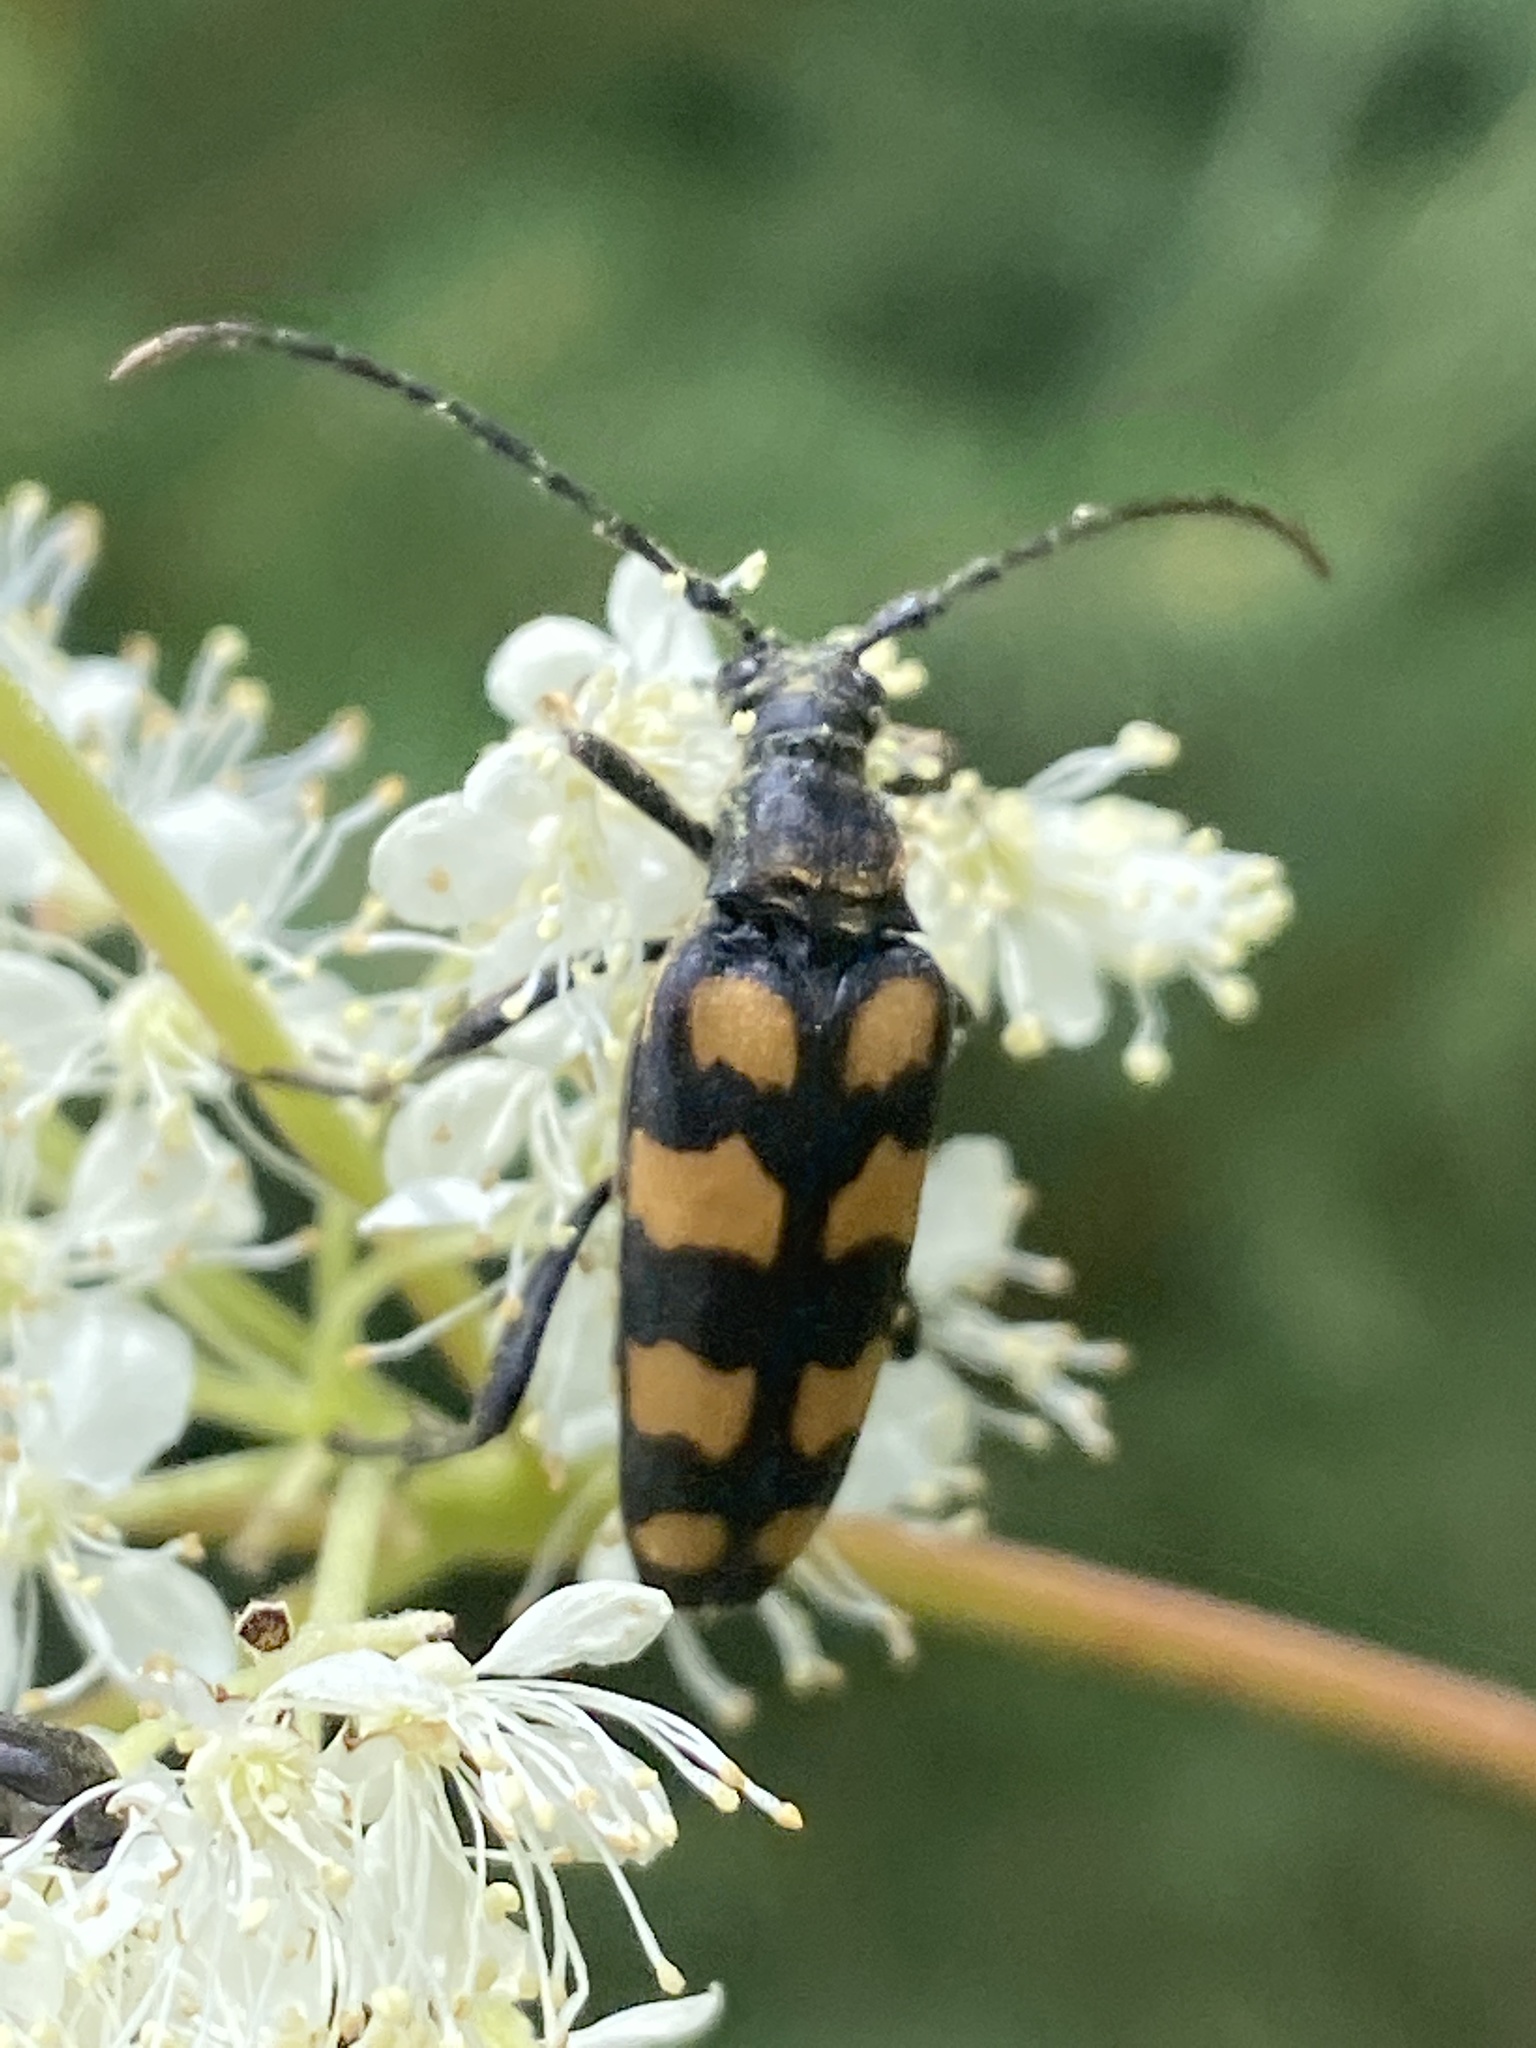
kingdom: Animalia
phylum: Arthropoda
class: Insecta
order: Coleoptera
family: Cerambycidae
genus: Leptura
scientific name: Leptura quadrifasciata
